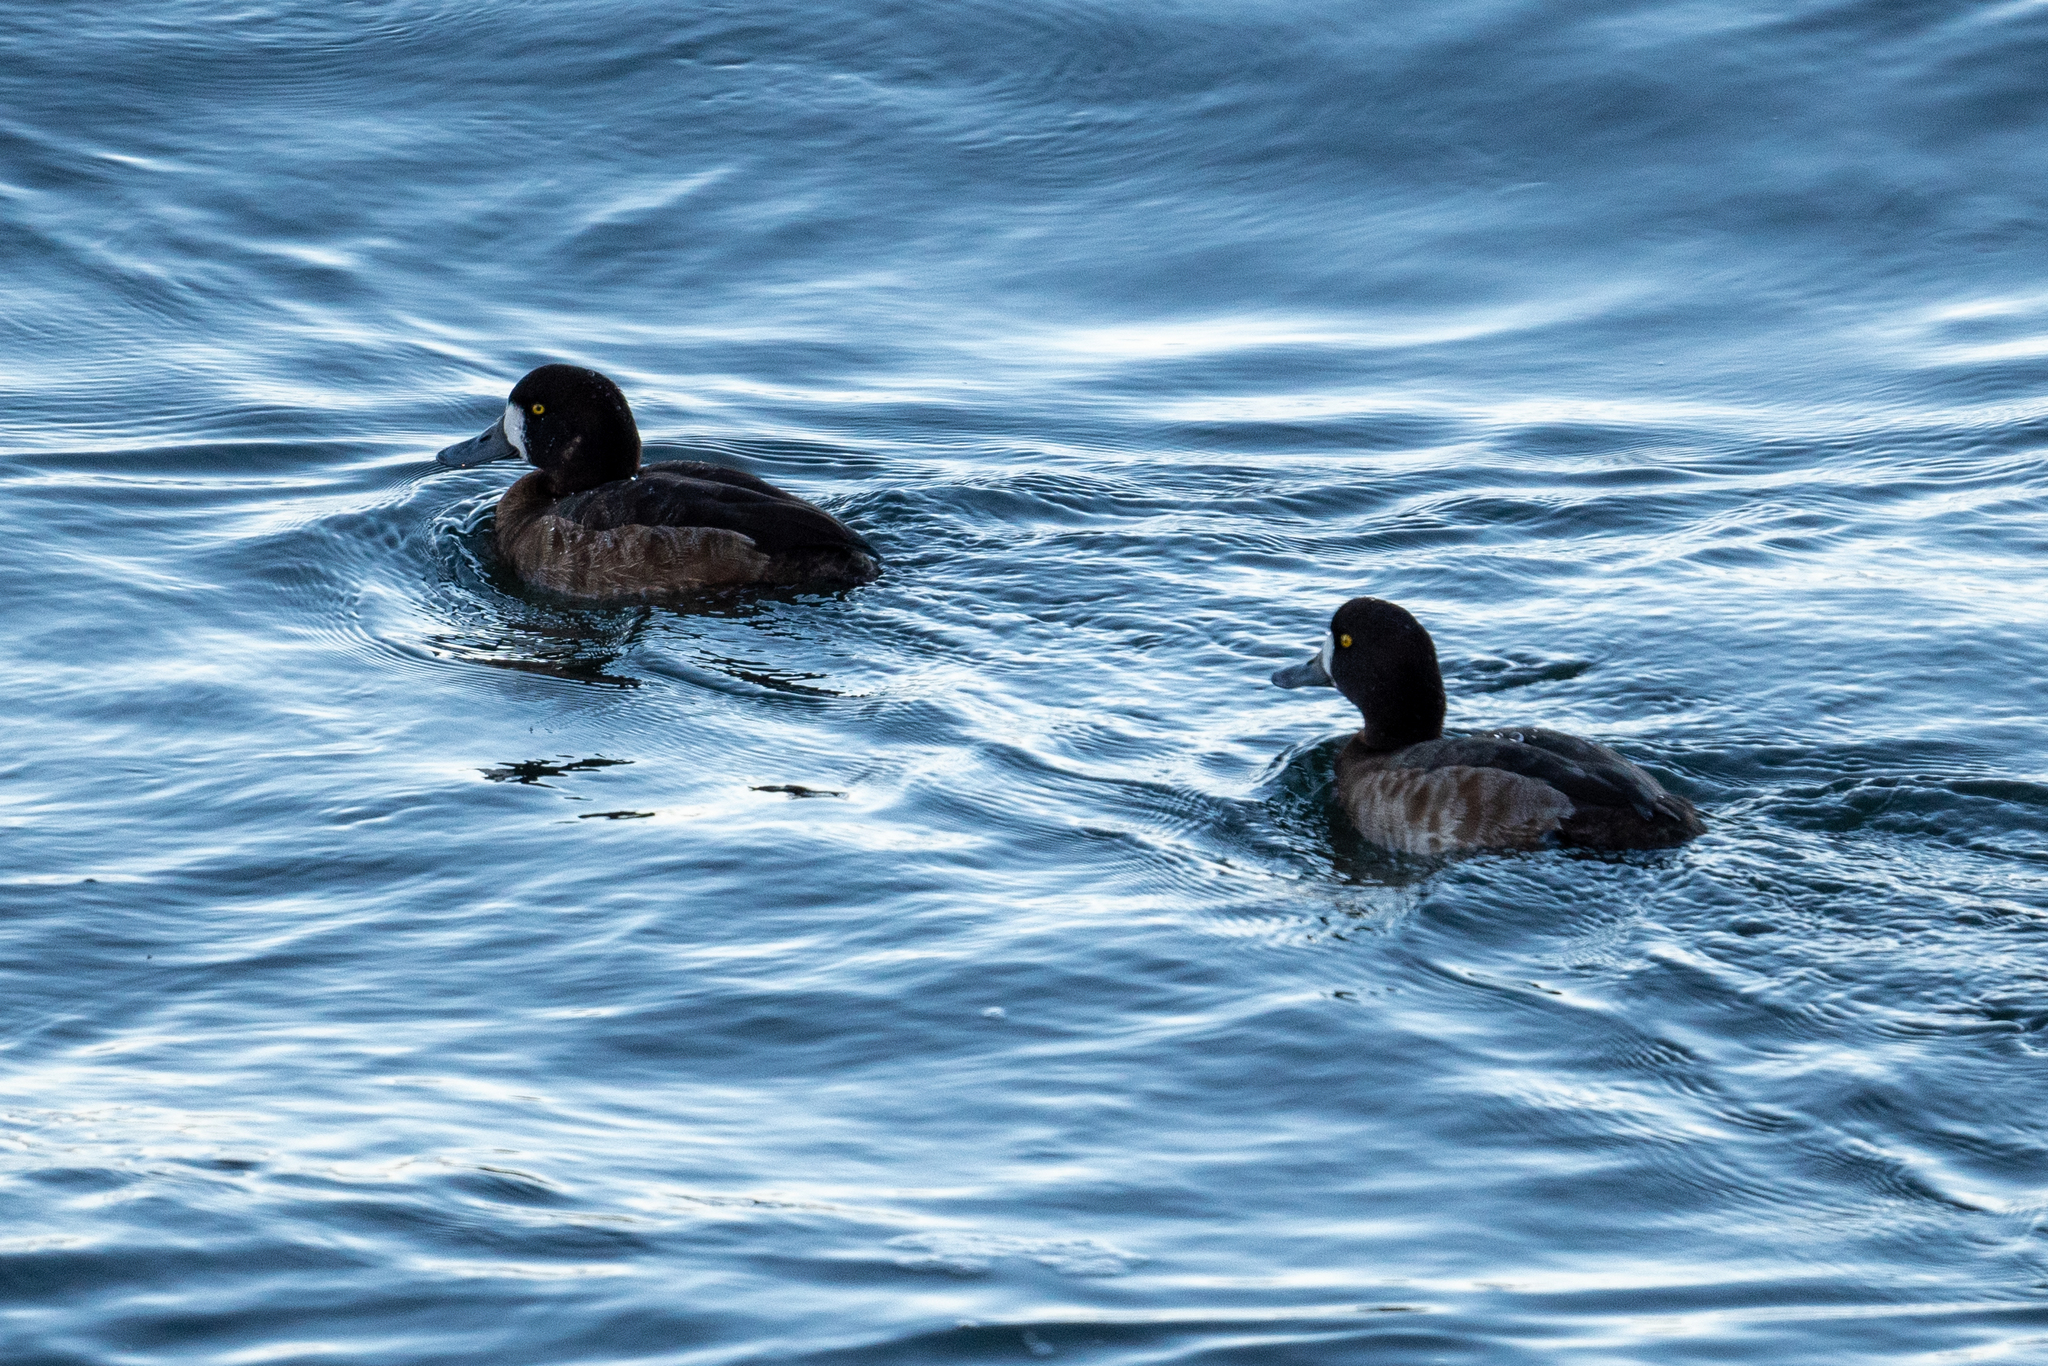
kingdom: Animalia
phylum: Chordata
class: Aves
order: Anseriformes
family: Anatidae
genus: Aythya
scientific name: Aythya marila
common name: Greater scaup
